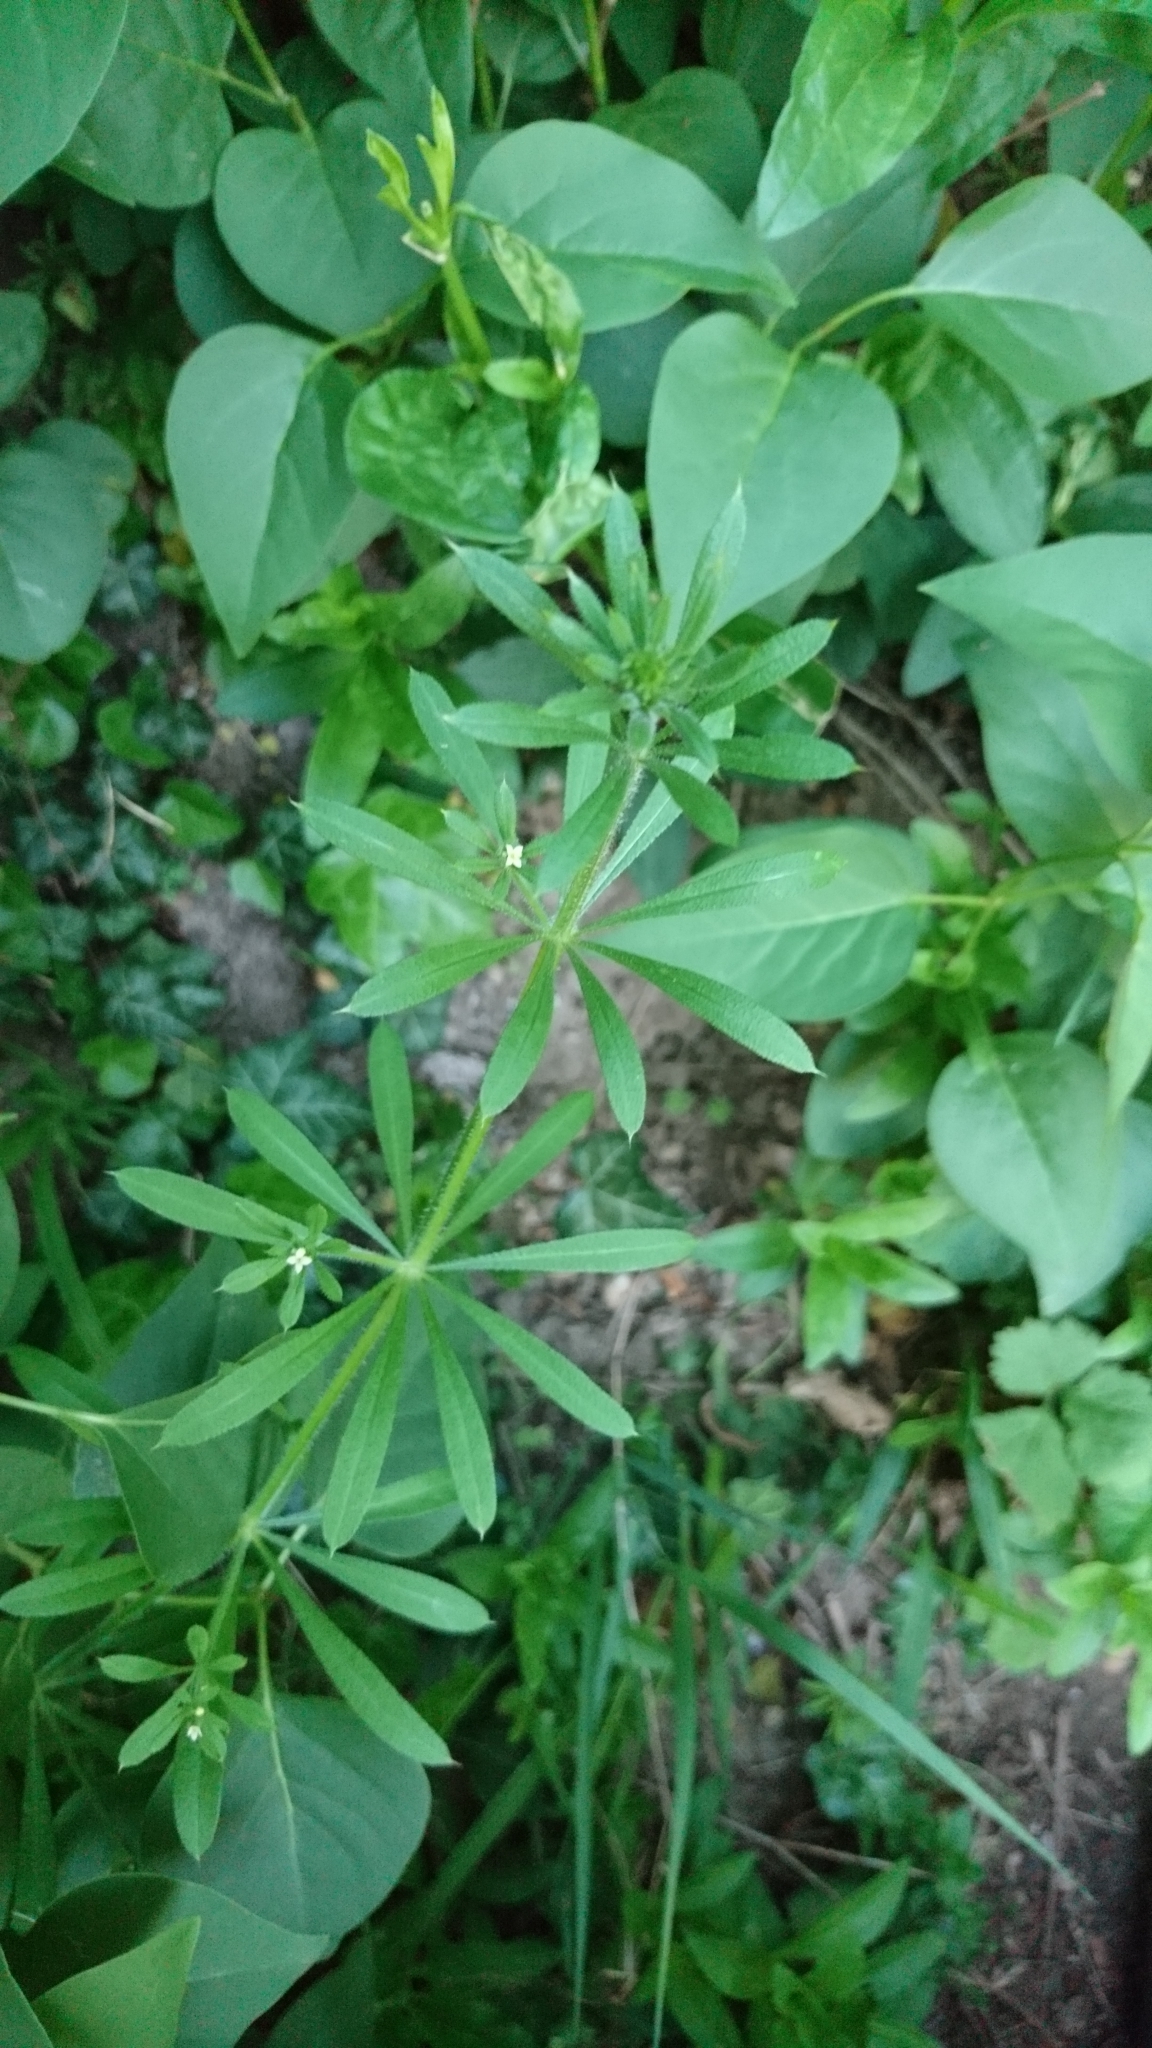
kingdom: Plantae
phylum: Tracheophyta
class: Magnoliopsida
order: Gentianales
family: Rubiaceae
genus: Galium
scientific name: Galium aparine
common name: Cleavers
